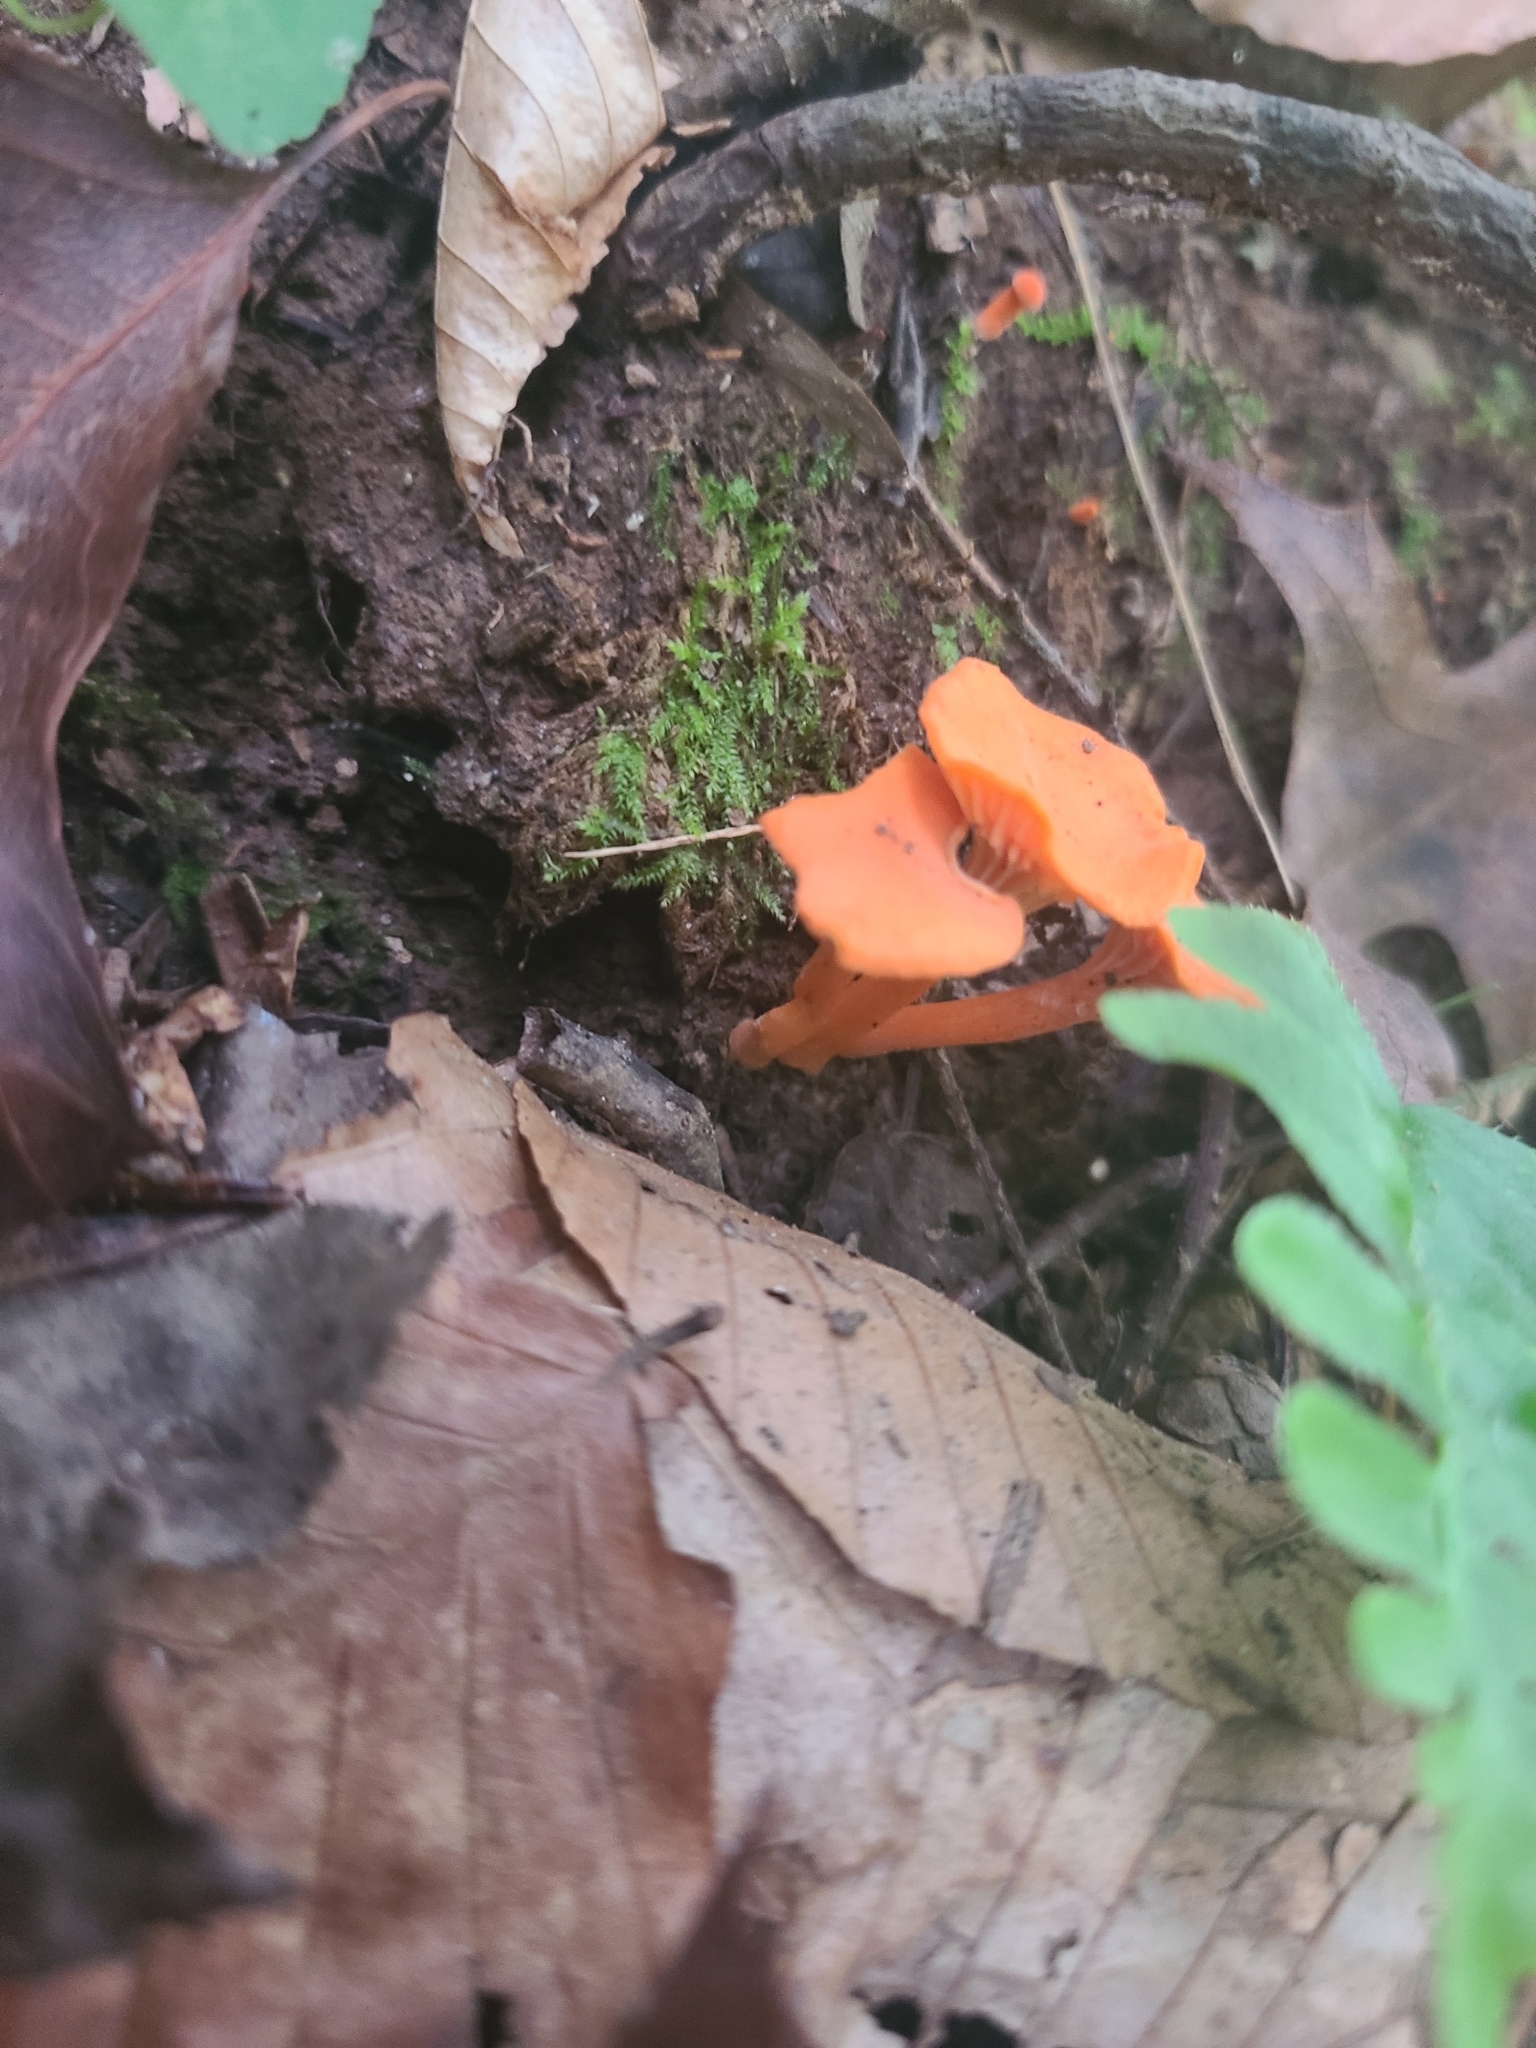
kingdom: Fungi
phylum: Basidiomycota
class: Agaricomycetes
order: Cantharellales
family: Hydnaceae
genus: Cantharellus
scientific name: Cantharellus cinnabarinus
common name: Cinnabar chanterelle
